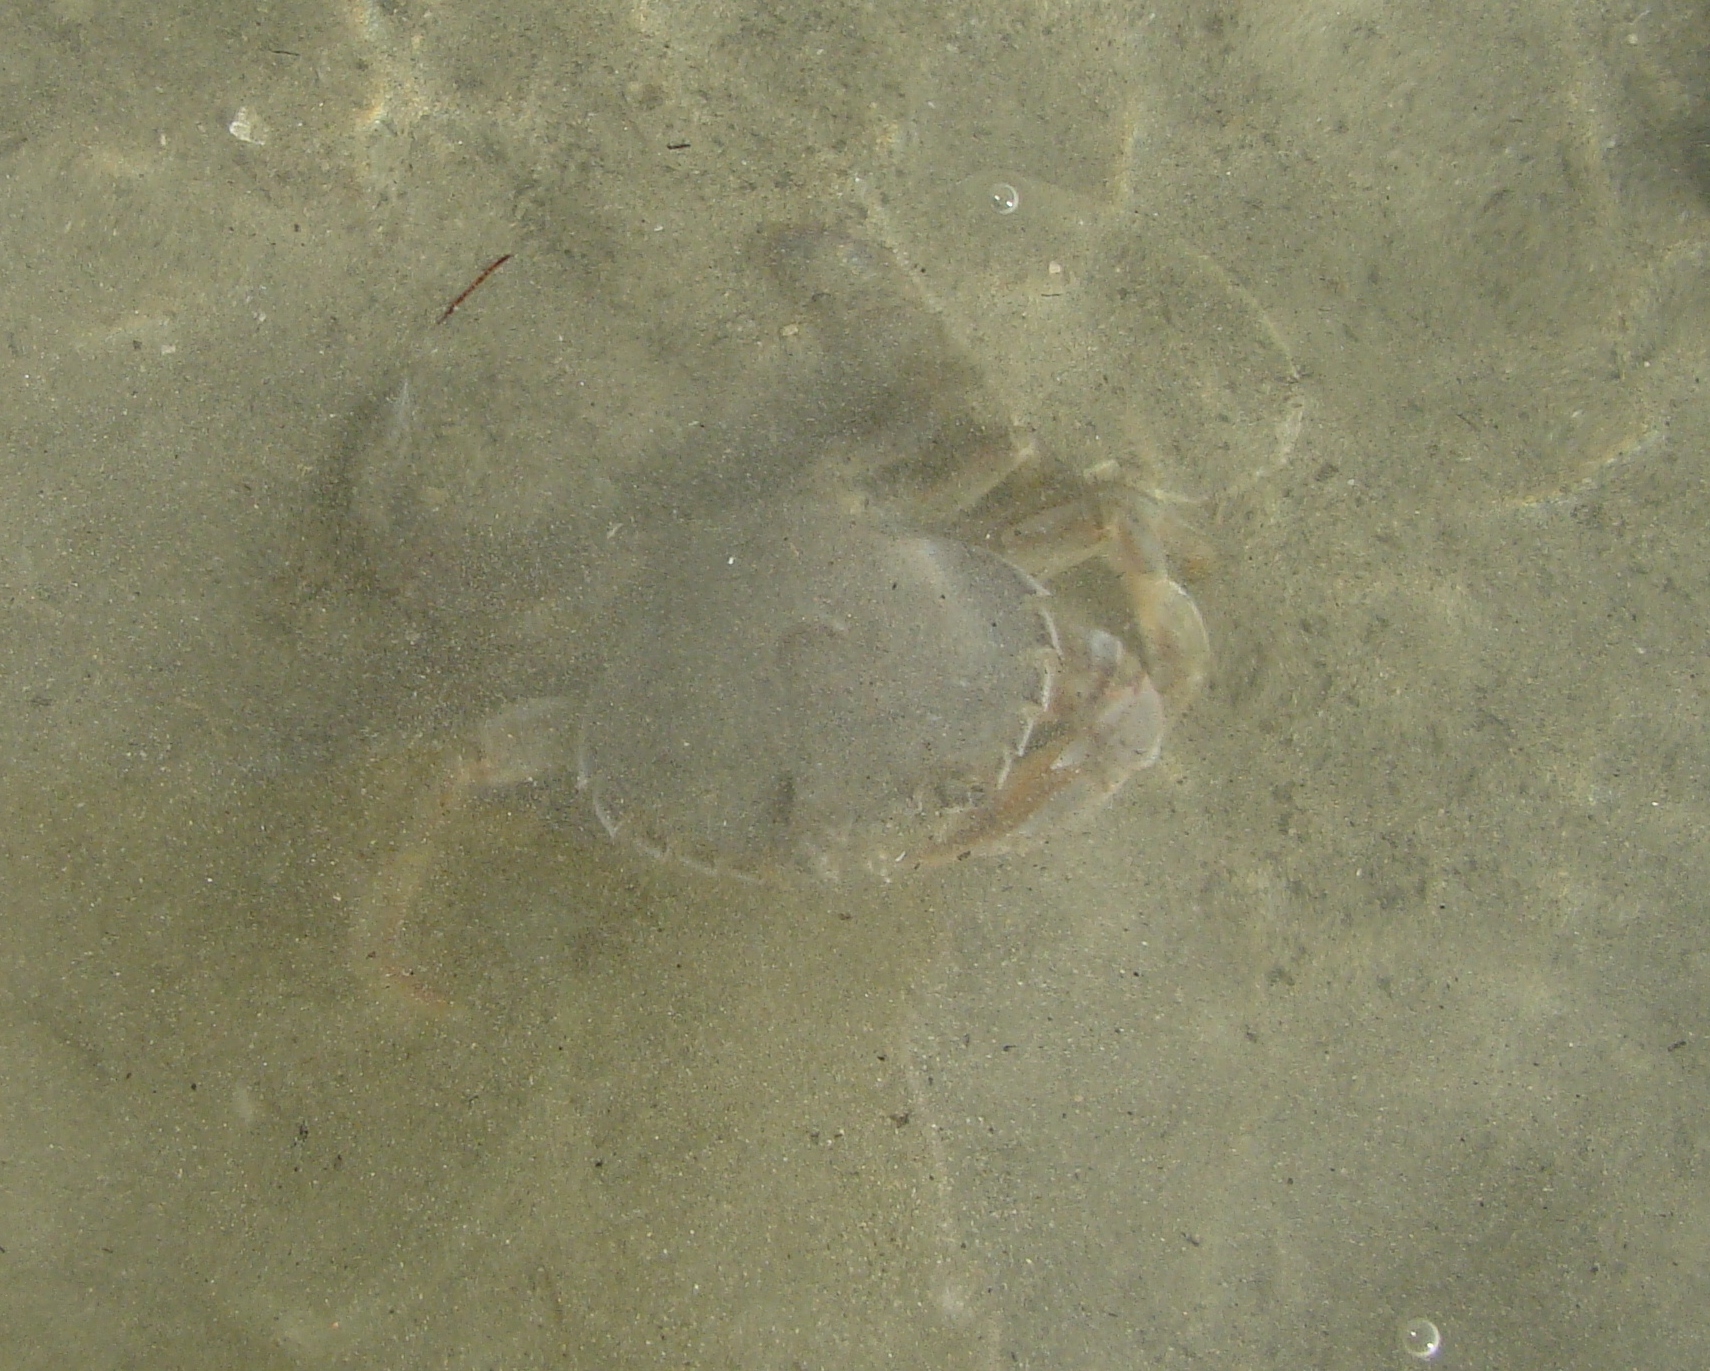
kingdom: Animalia
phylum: Arthropoda
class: Malacostraca
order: Decapoda
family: Ovalipidae
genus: Ovalipes
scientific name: Ovalipes catharus
